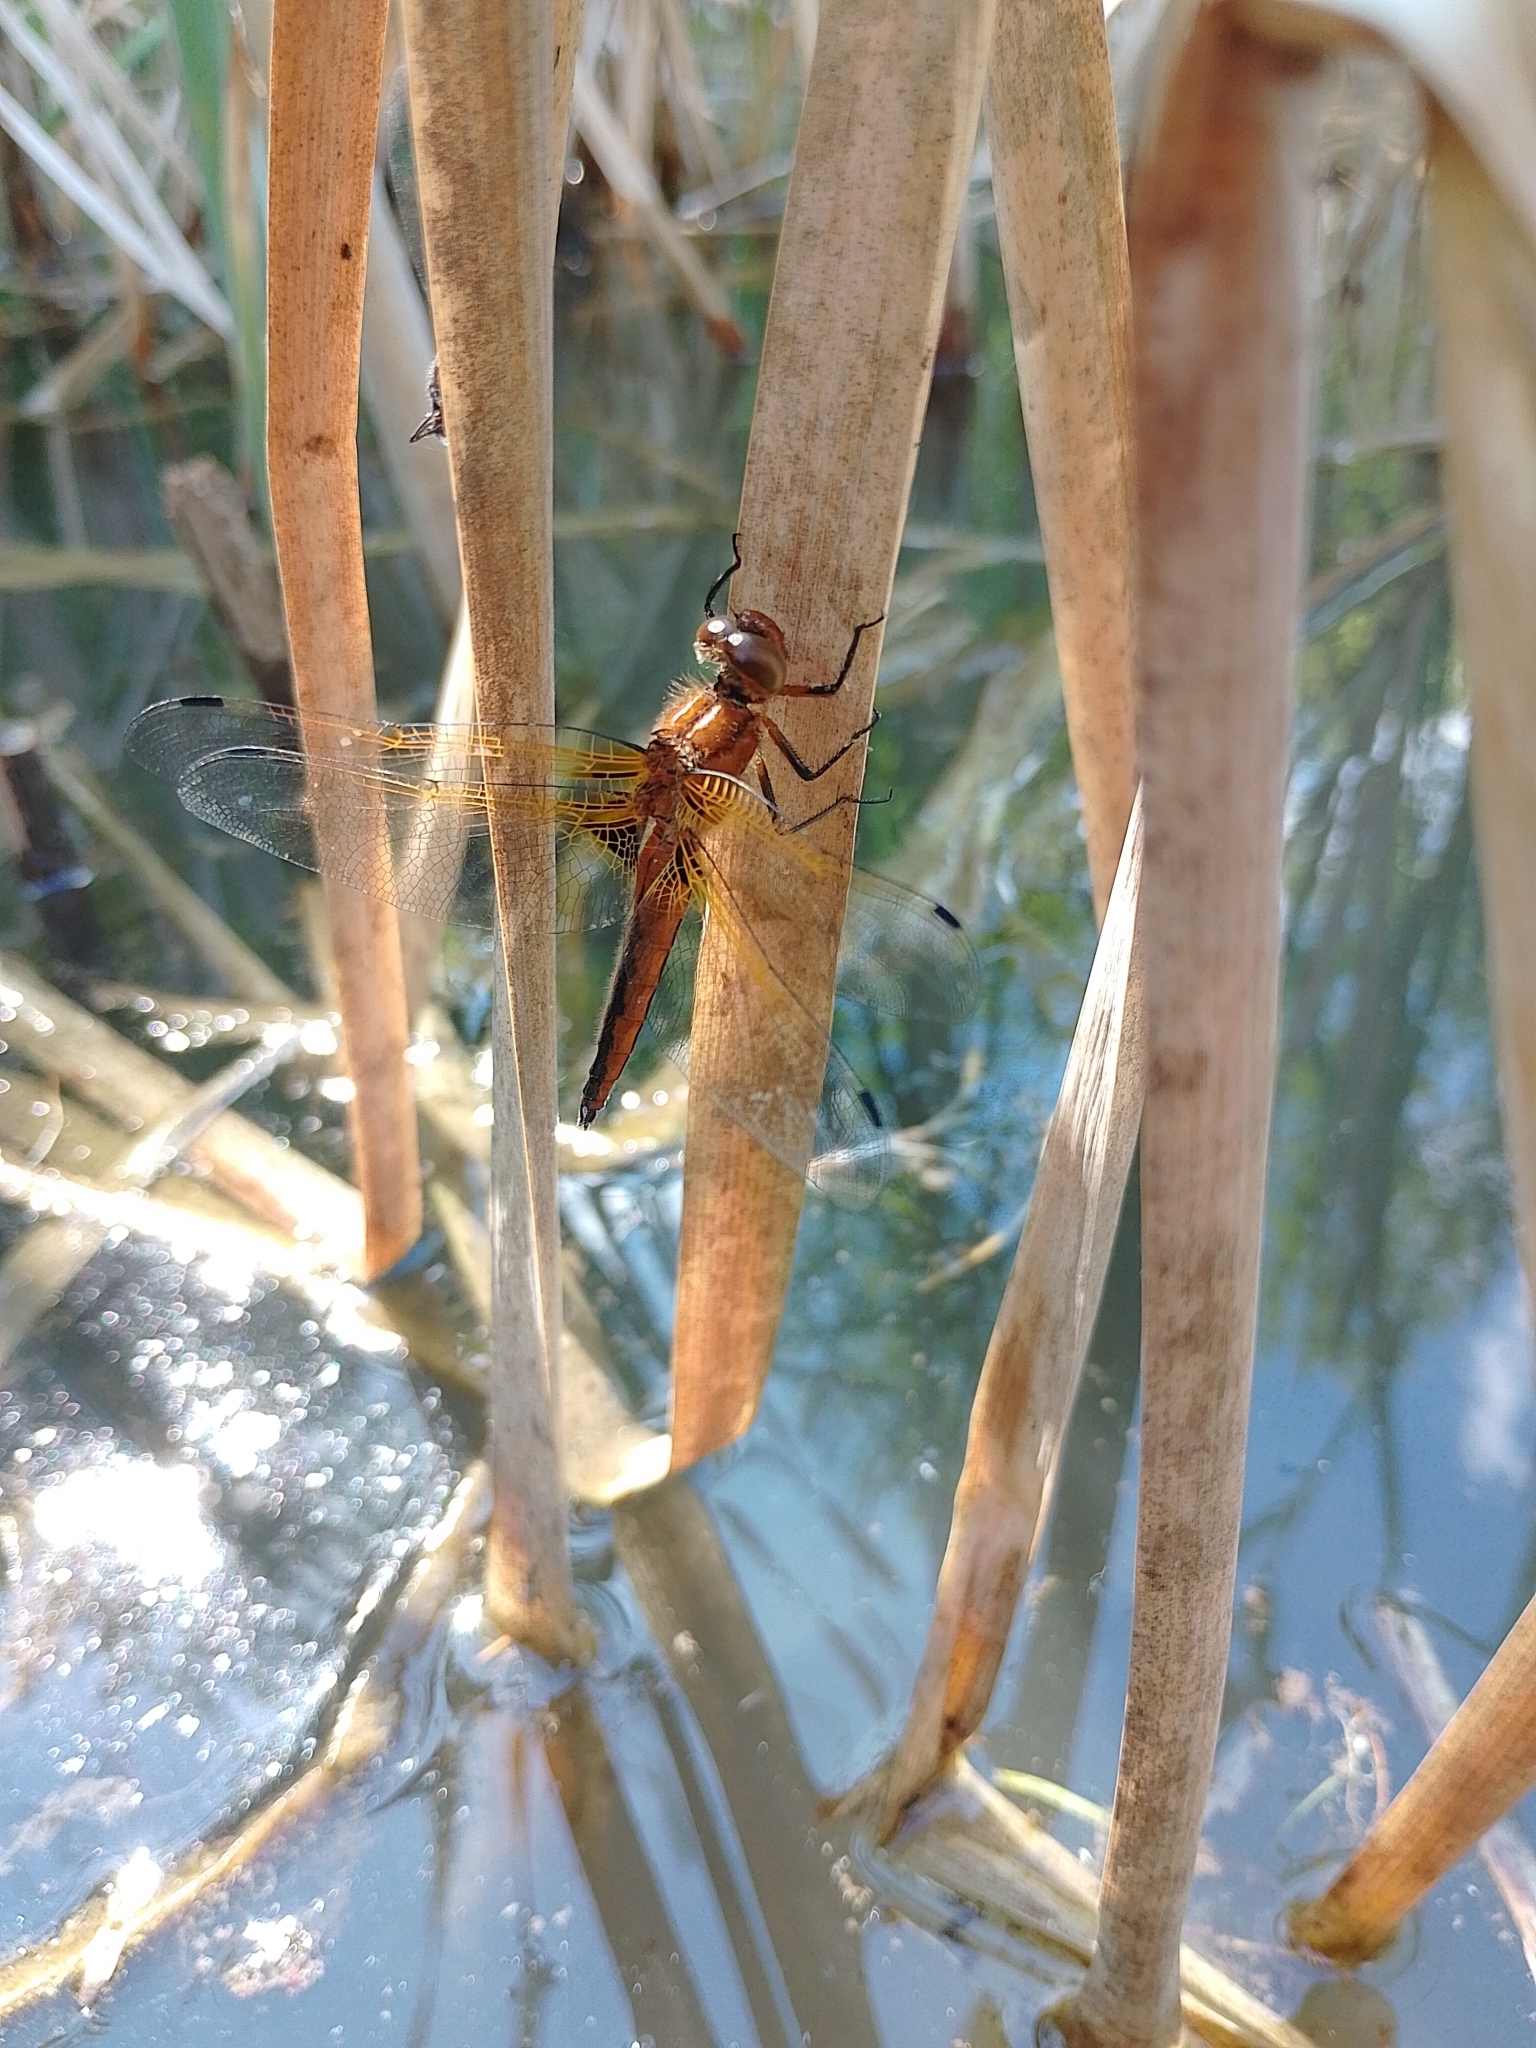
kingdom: Animalia
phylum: Arthropoda
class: Insecta
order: Odonata
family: Libellulidae
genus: Libellula
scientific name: Libellula fulva
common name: Blue chaser
